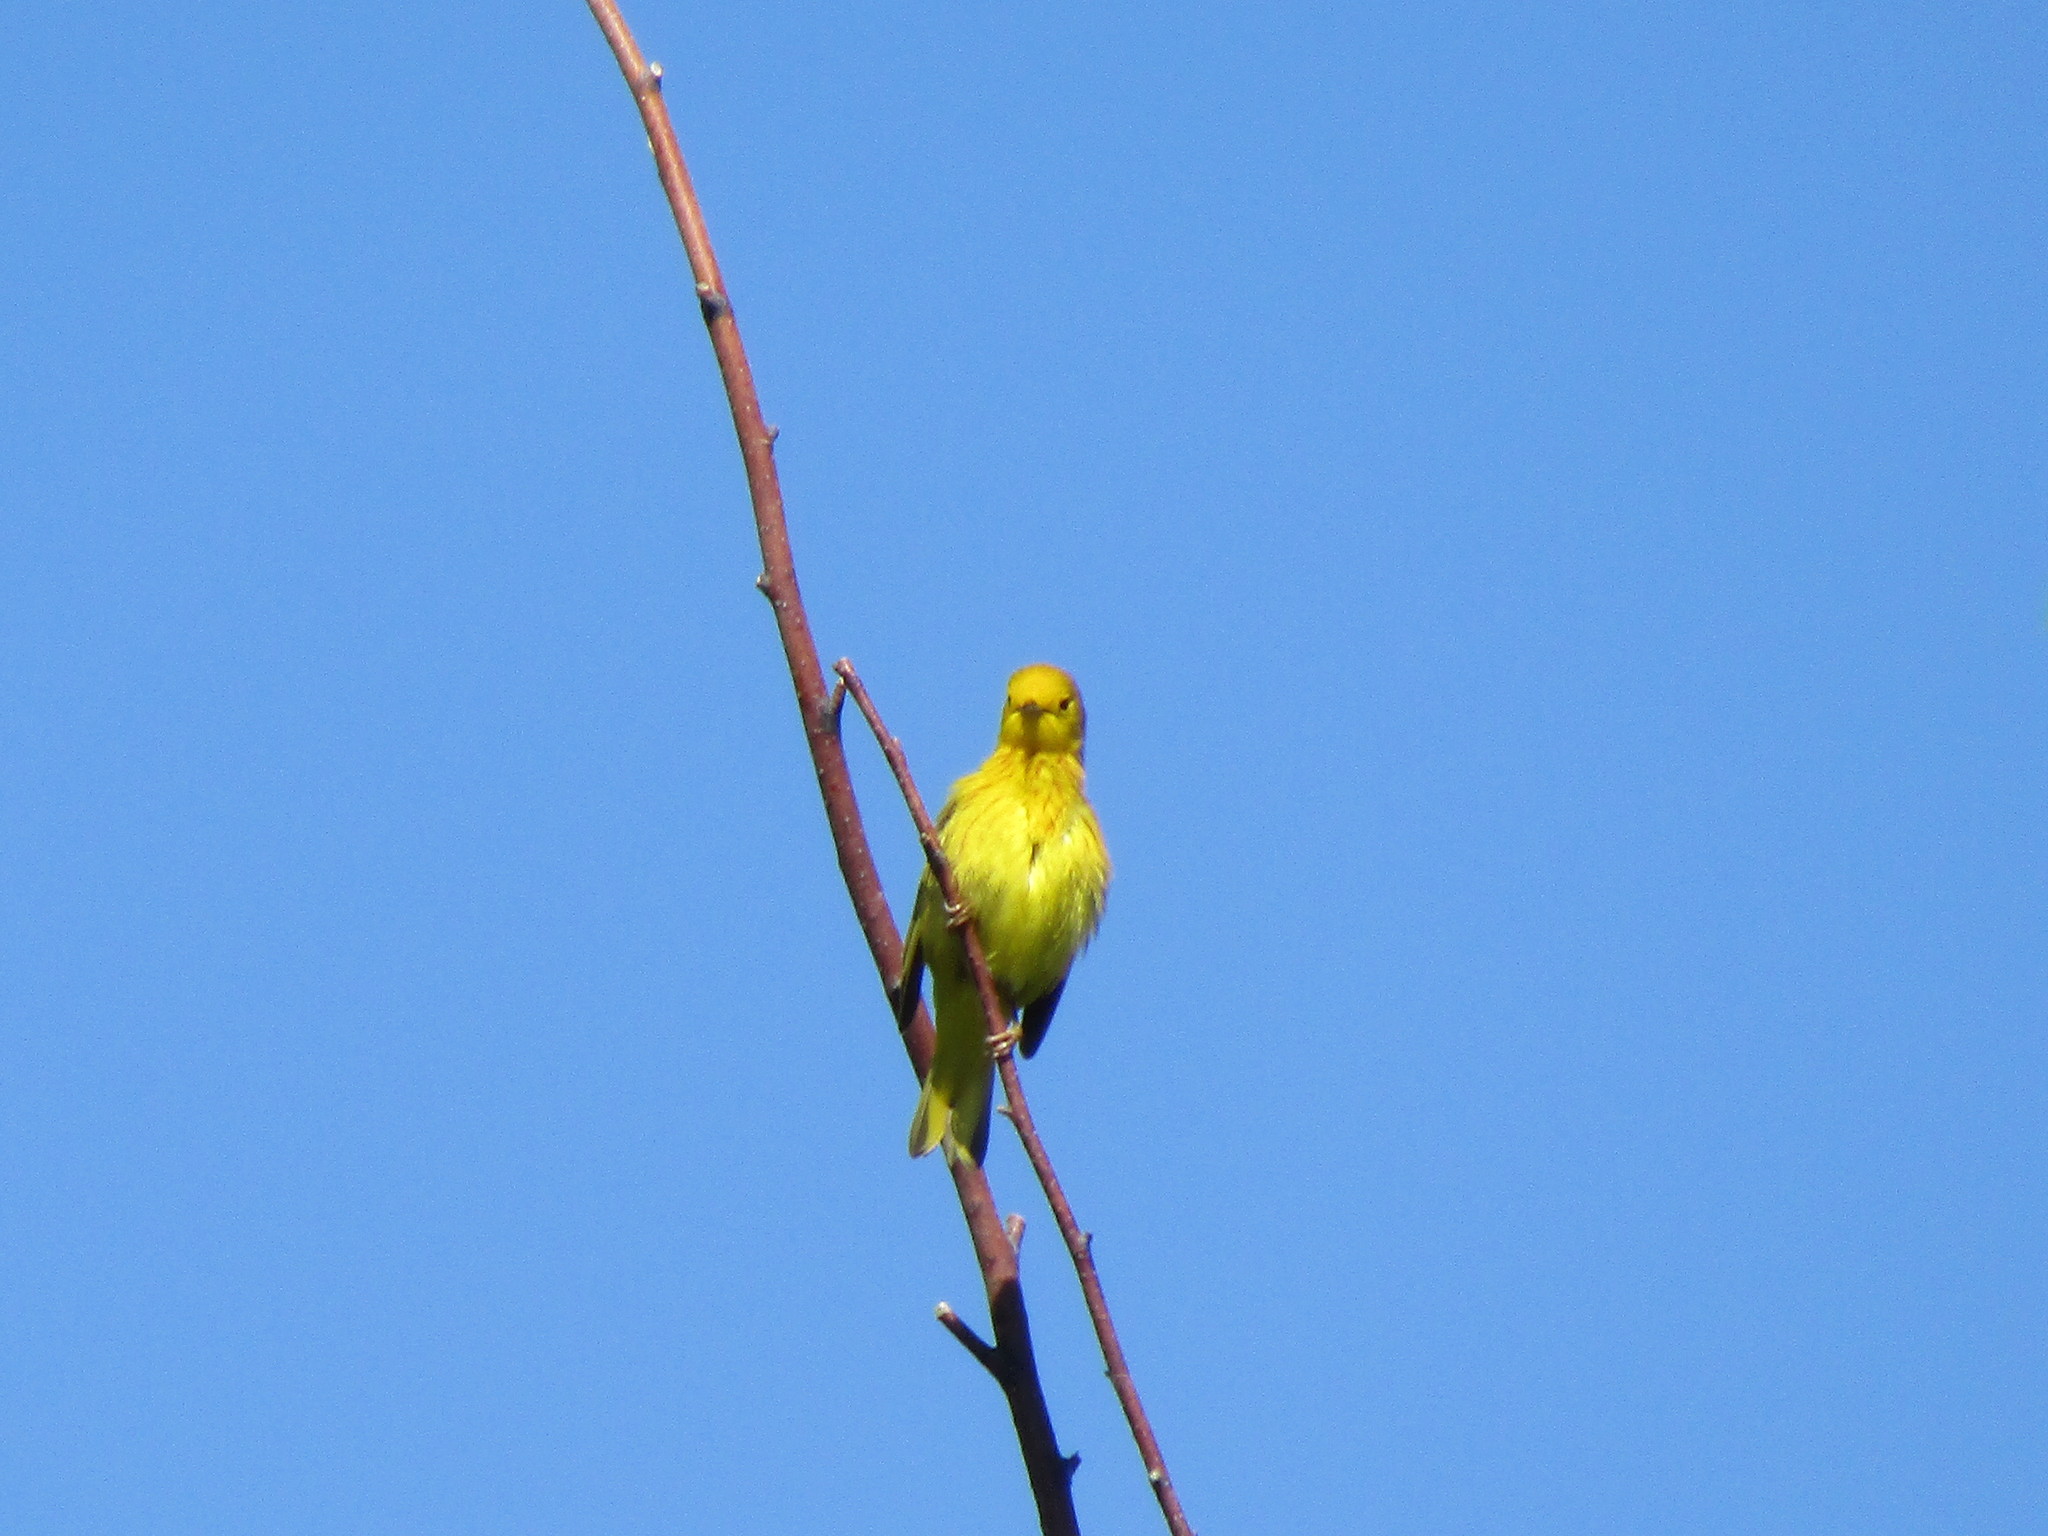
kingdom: Animalia
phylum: Chordata
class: Aves
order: Passeriformes
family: Parulidae
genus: Setophaga
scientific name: Setophaga petechia
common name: Yellow warbler
